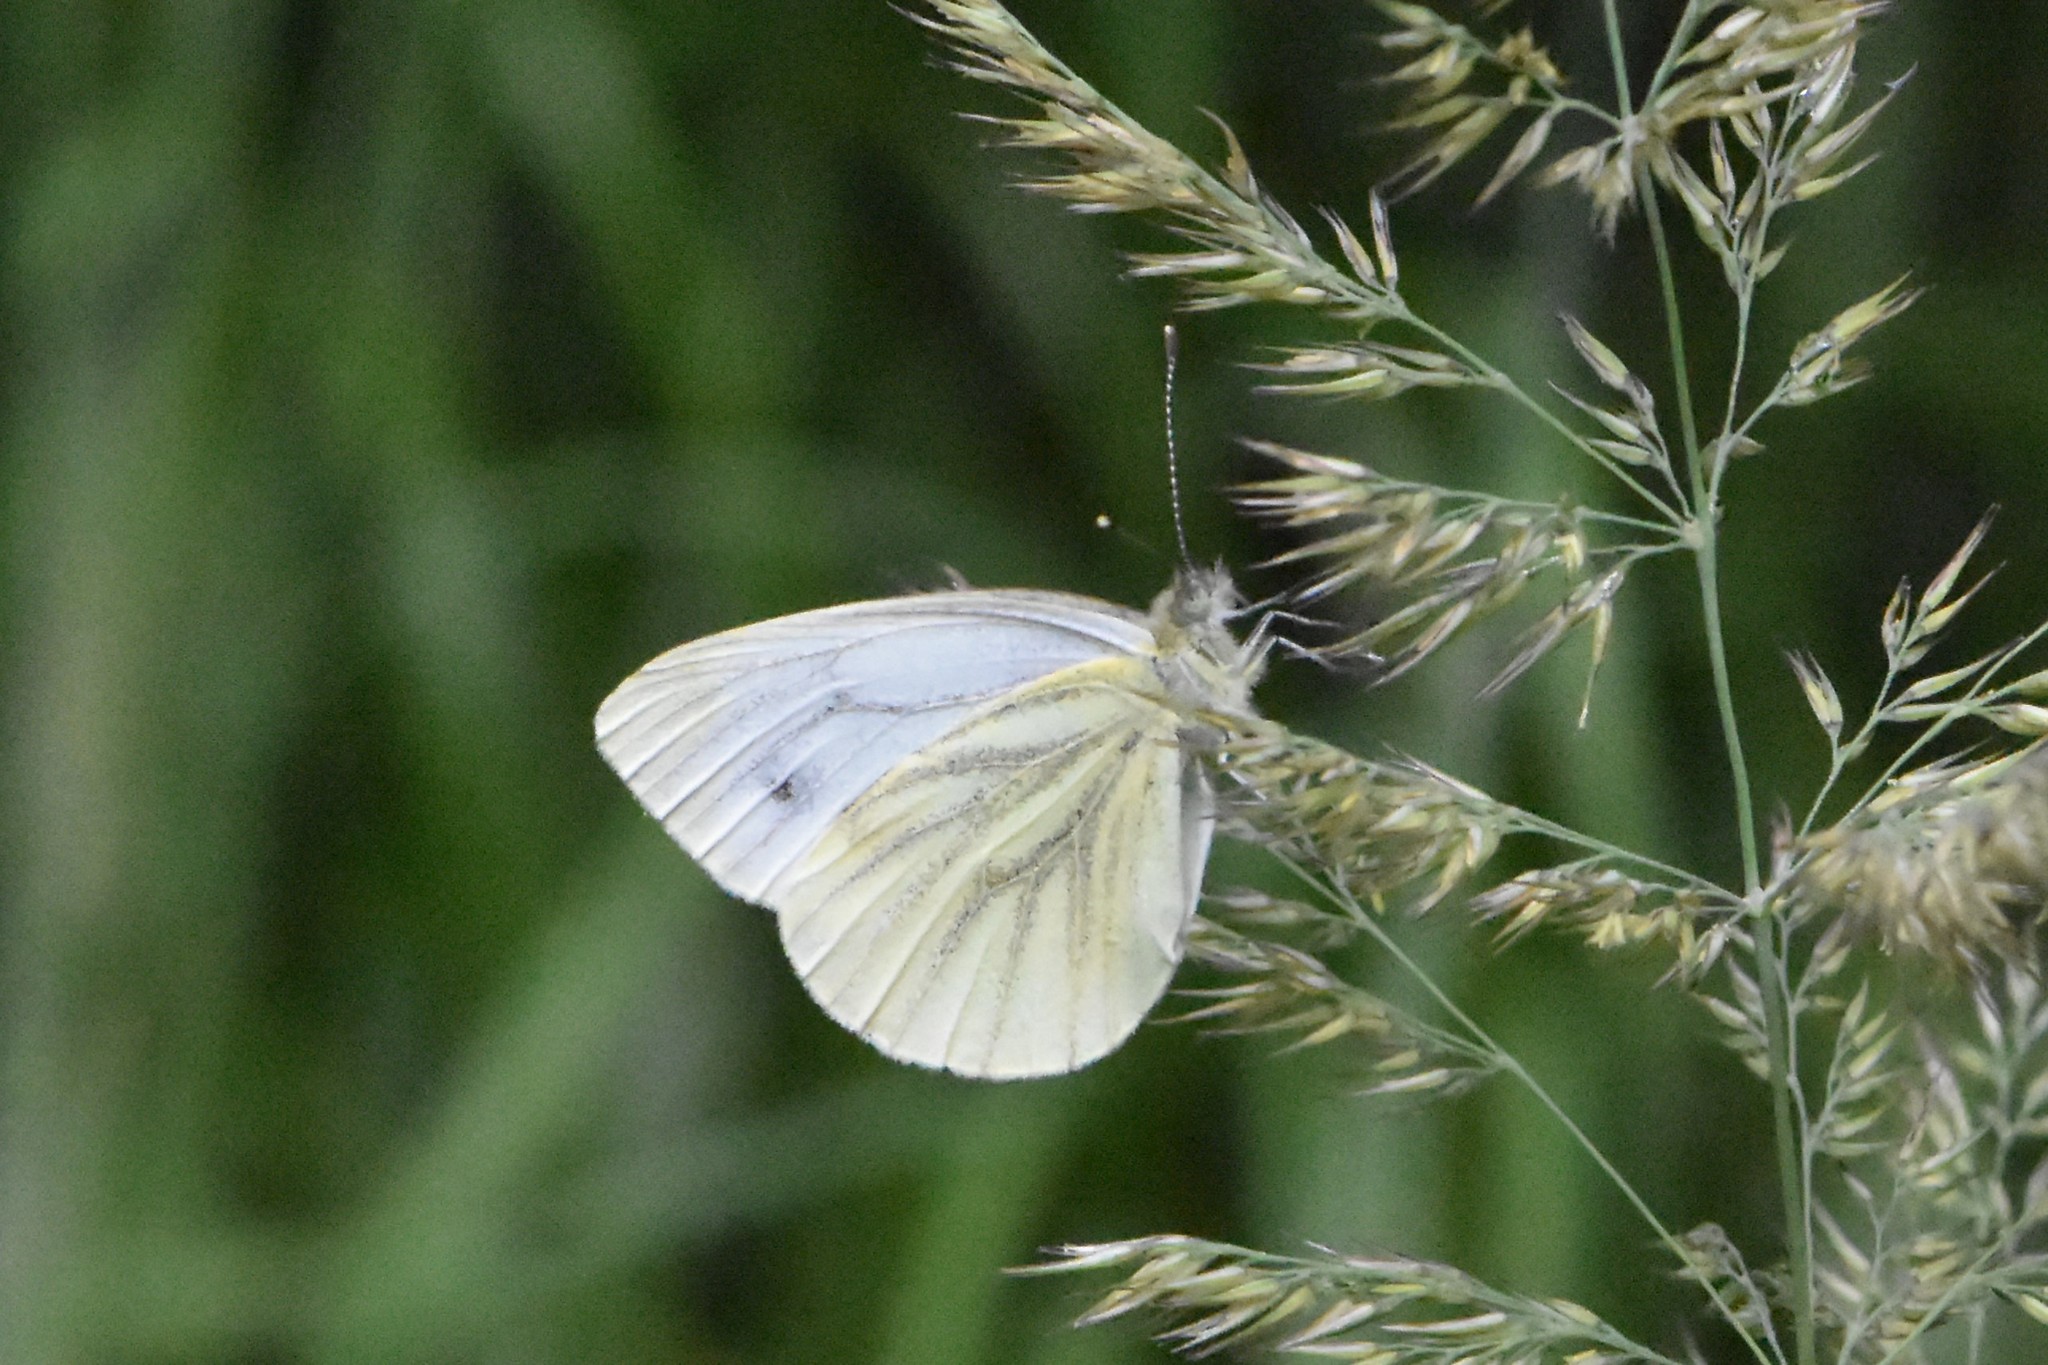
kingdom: Animalia
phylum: Arthropoda
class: Insecta
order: Lepidoptera
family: Pieridae
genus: Pieris
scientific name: Pieris napi
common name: Green-veined white
